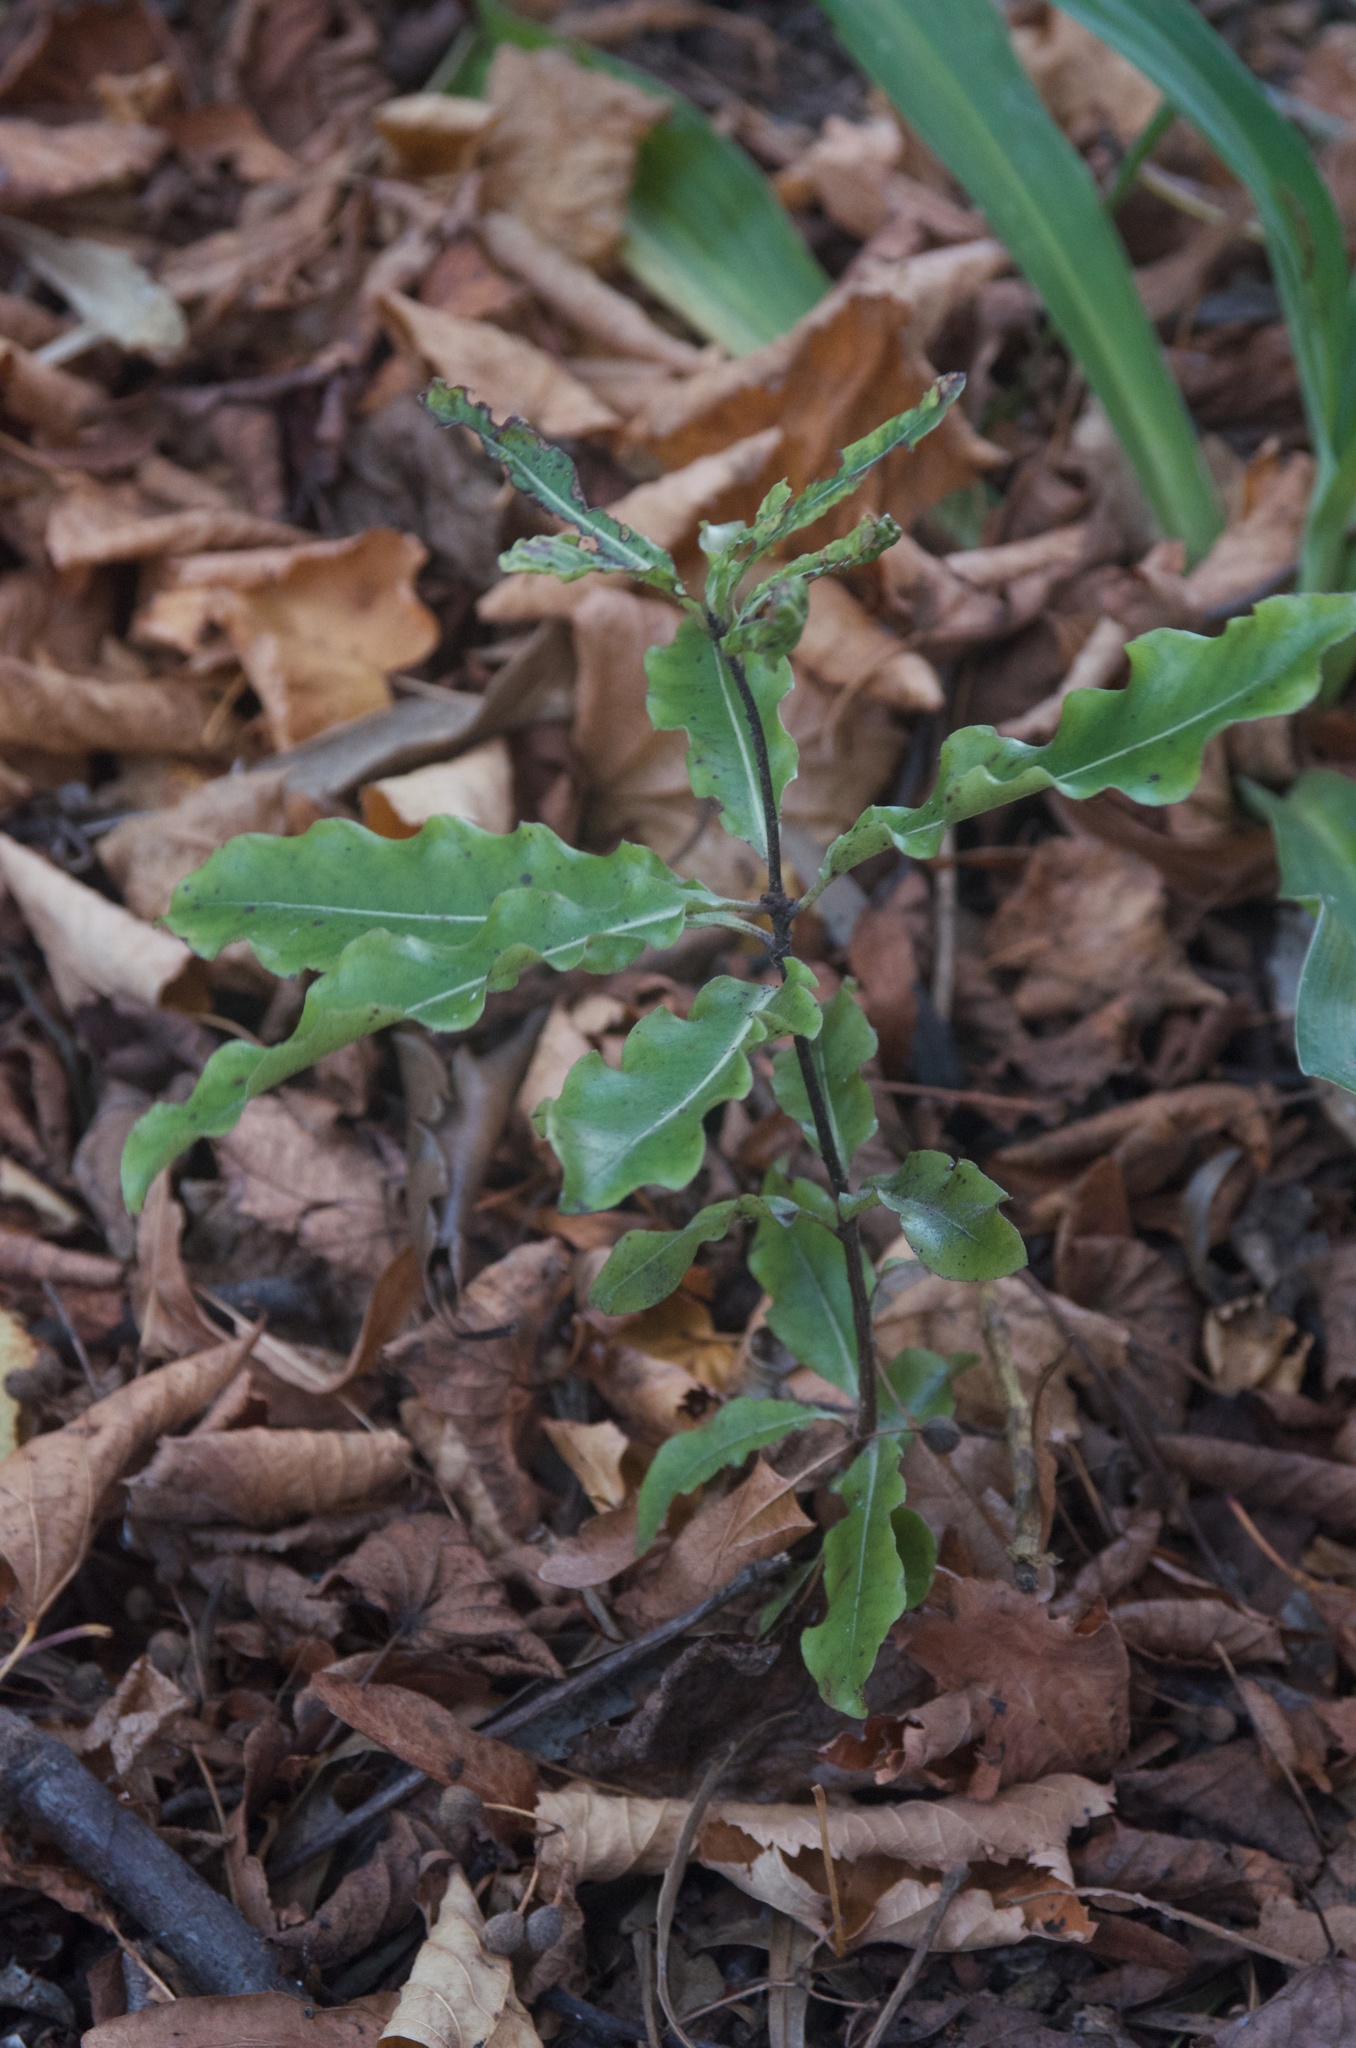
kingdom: Plantae
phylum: Tracheophyta
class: Magnoliopsida
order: Apiales
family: Pittosporaceae
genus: Pittosporum
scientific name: Pittosporum eugenioides
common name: Lemonwood
